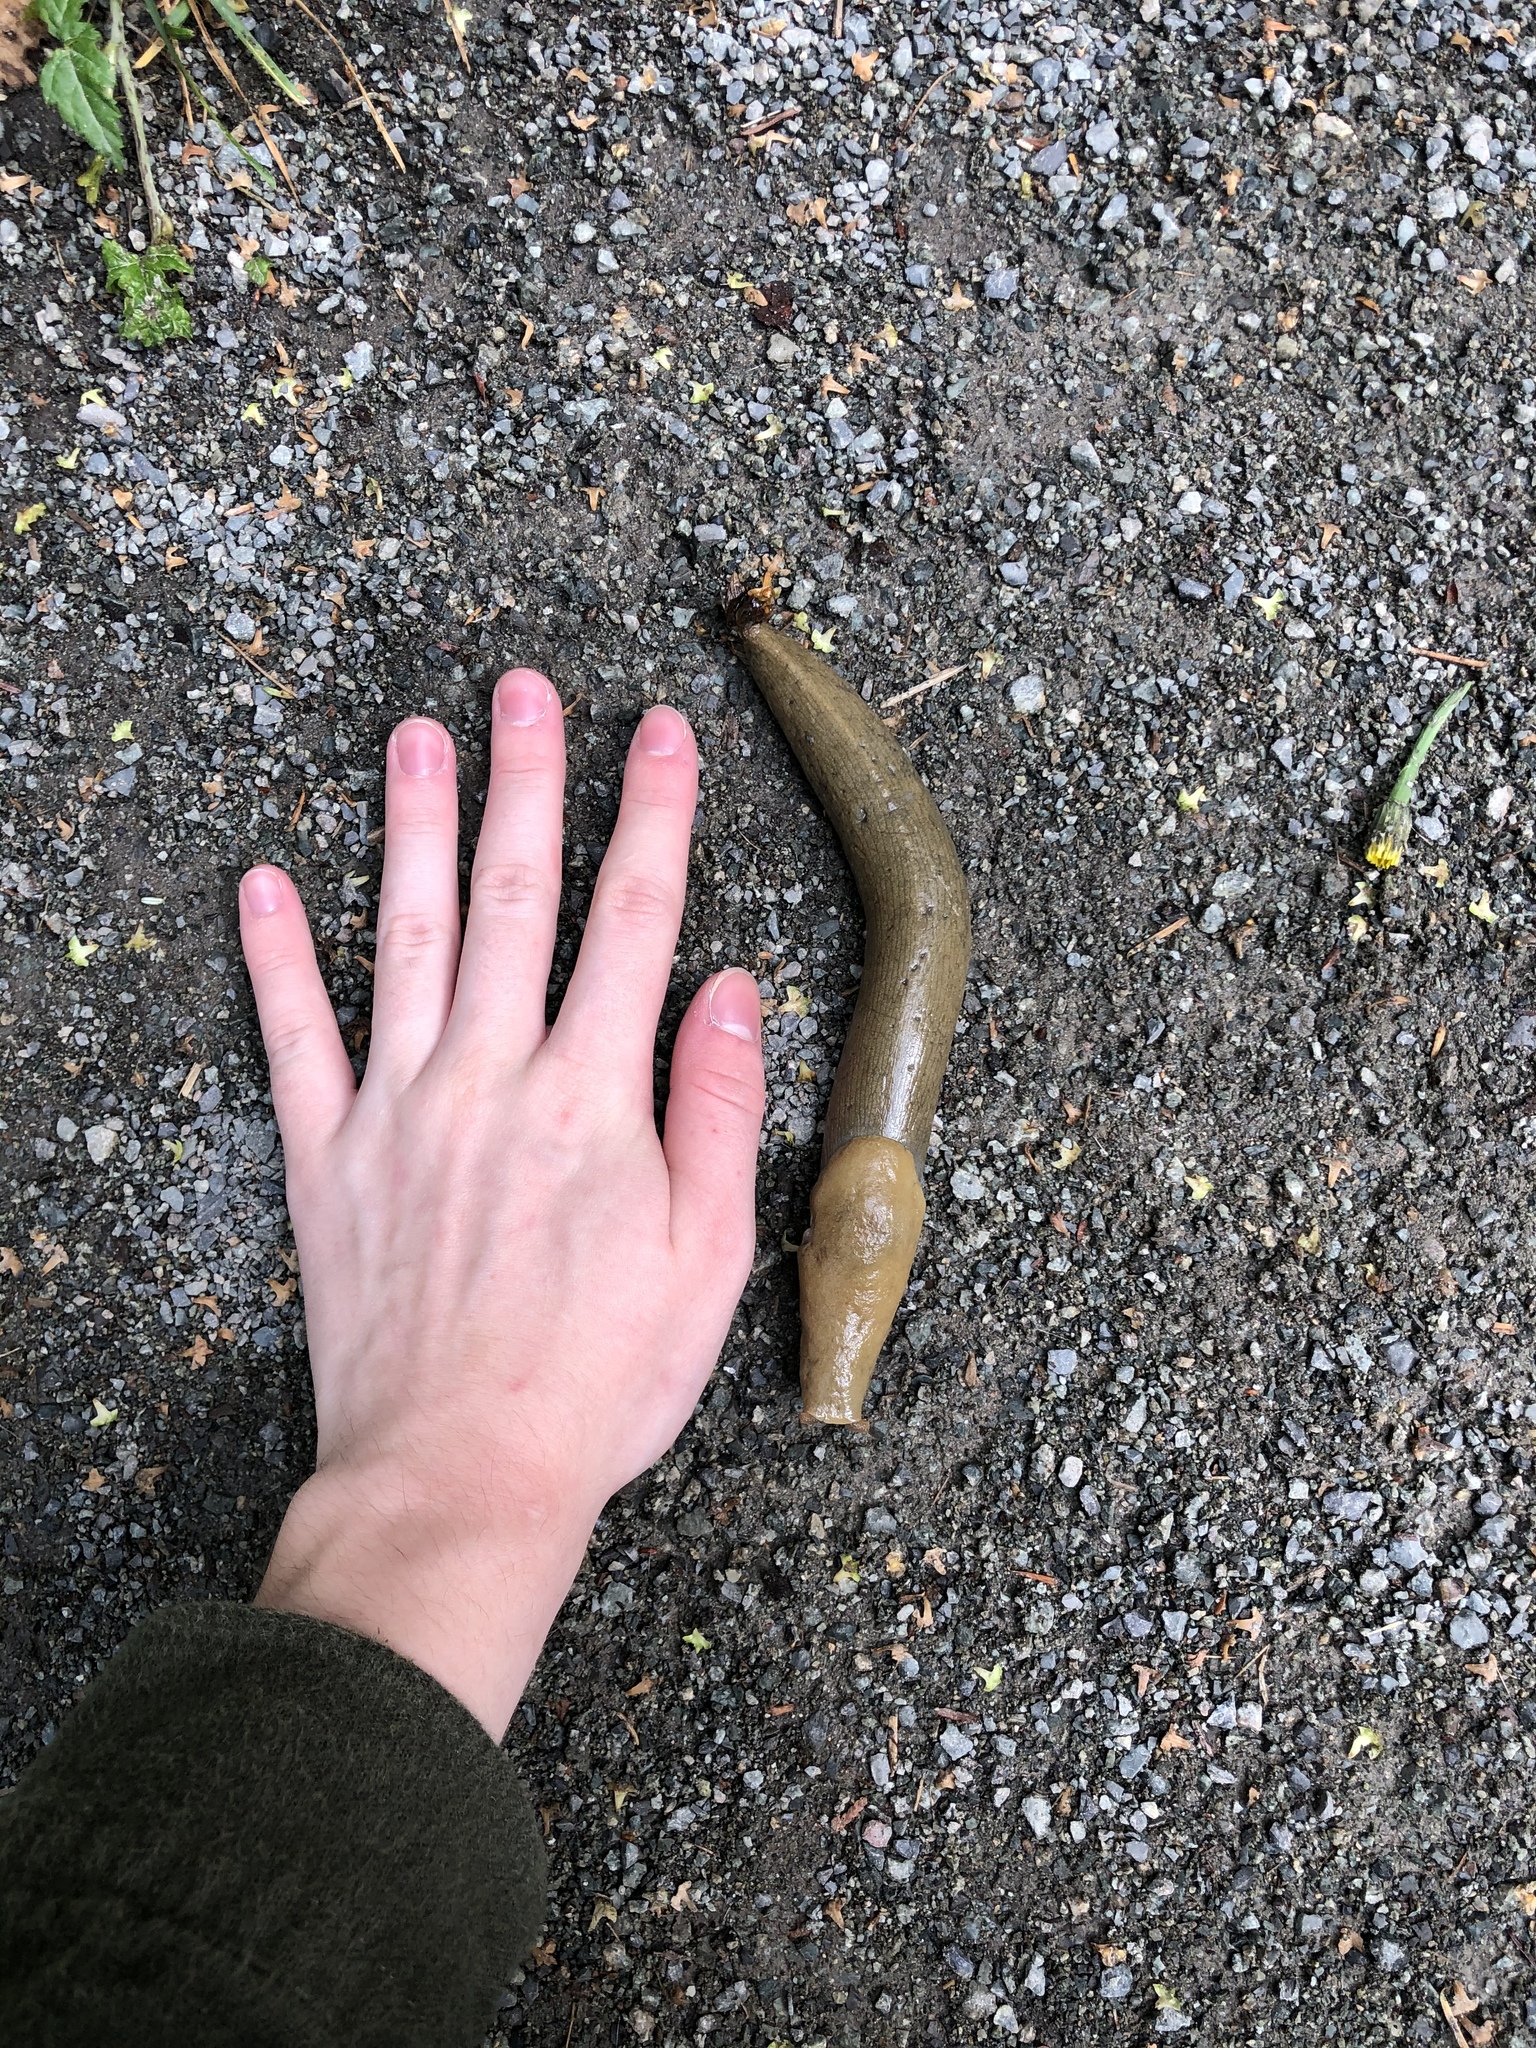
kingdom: Animalia
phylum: Mollusca
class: Gastropoda
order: Stylommatophora
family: Ariolimacidae
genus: Ariolimax
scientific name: Ariolimax columbianus
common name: Pacific banana slug
